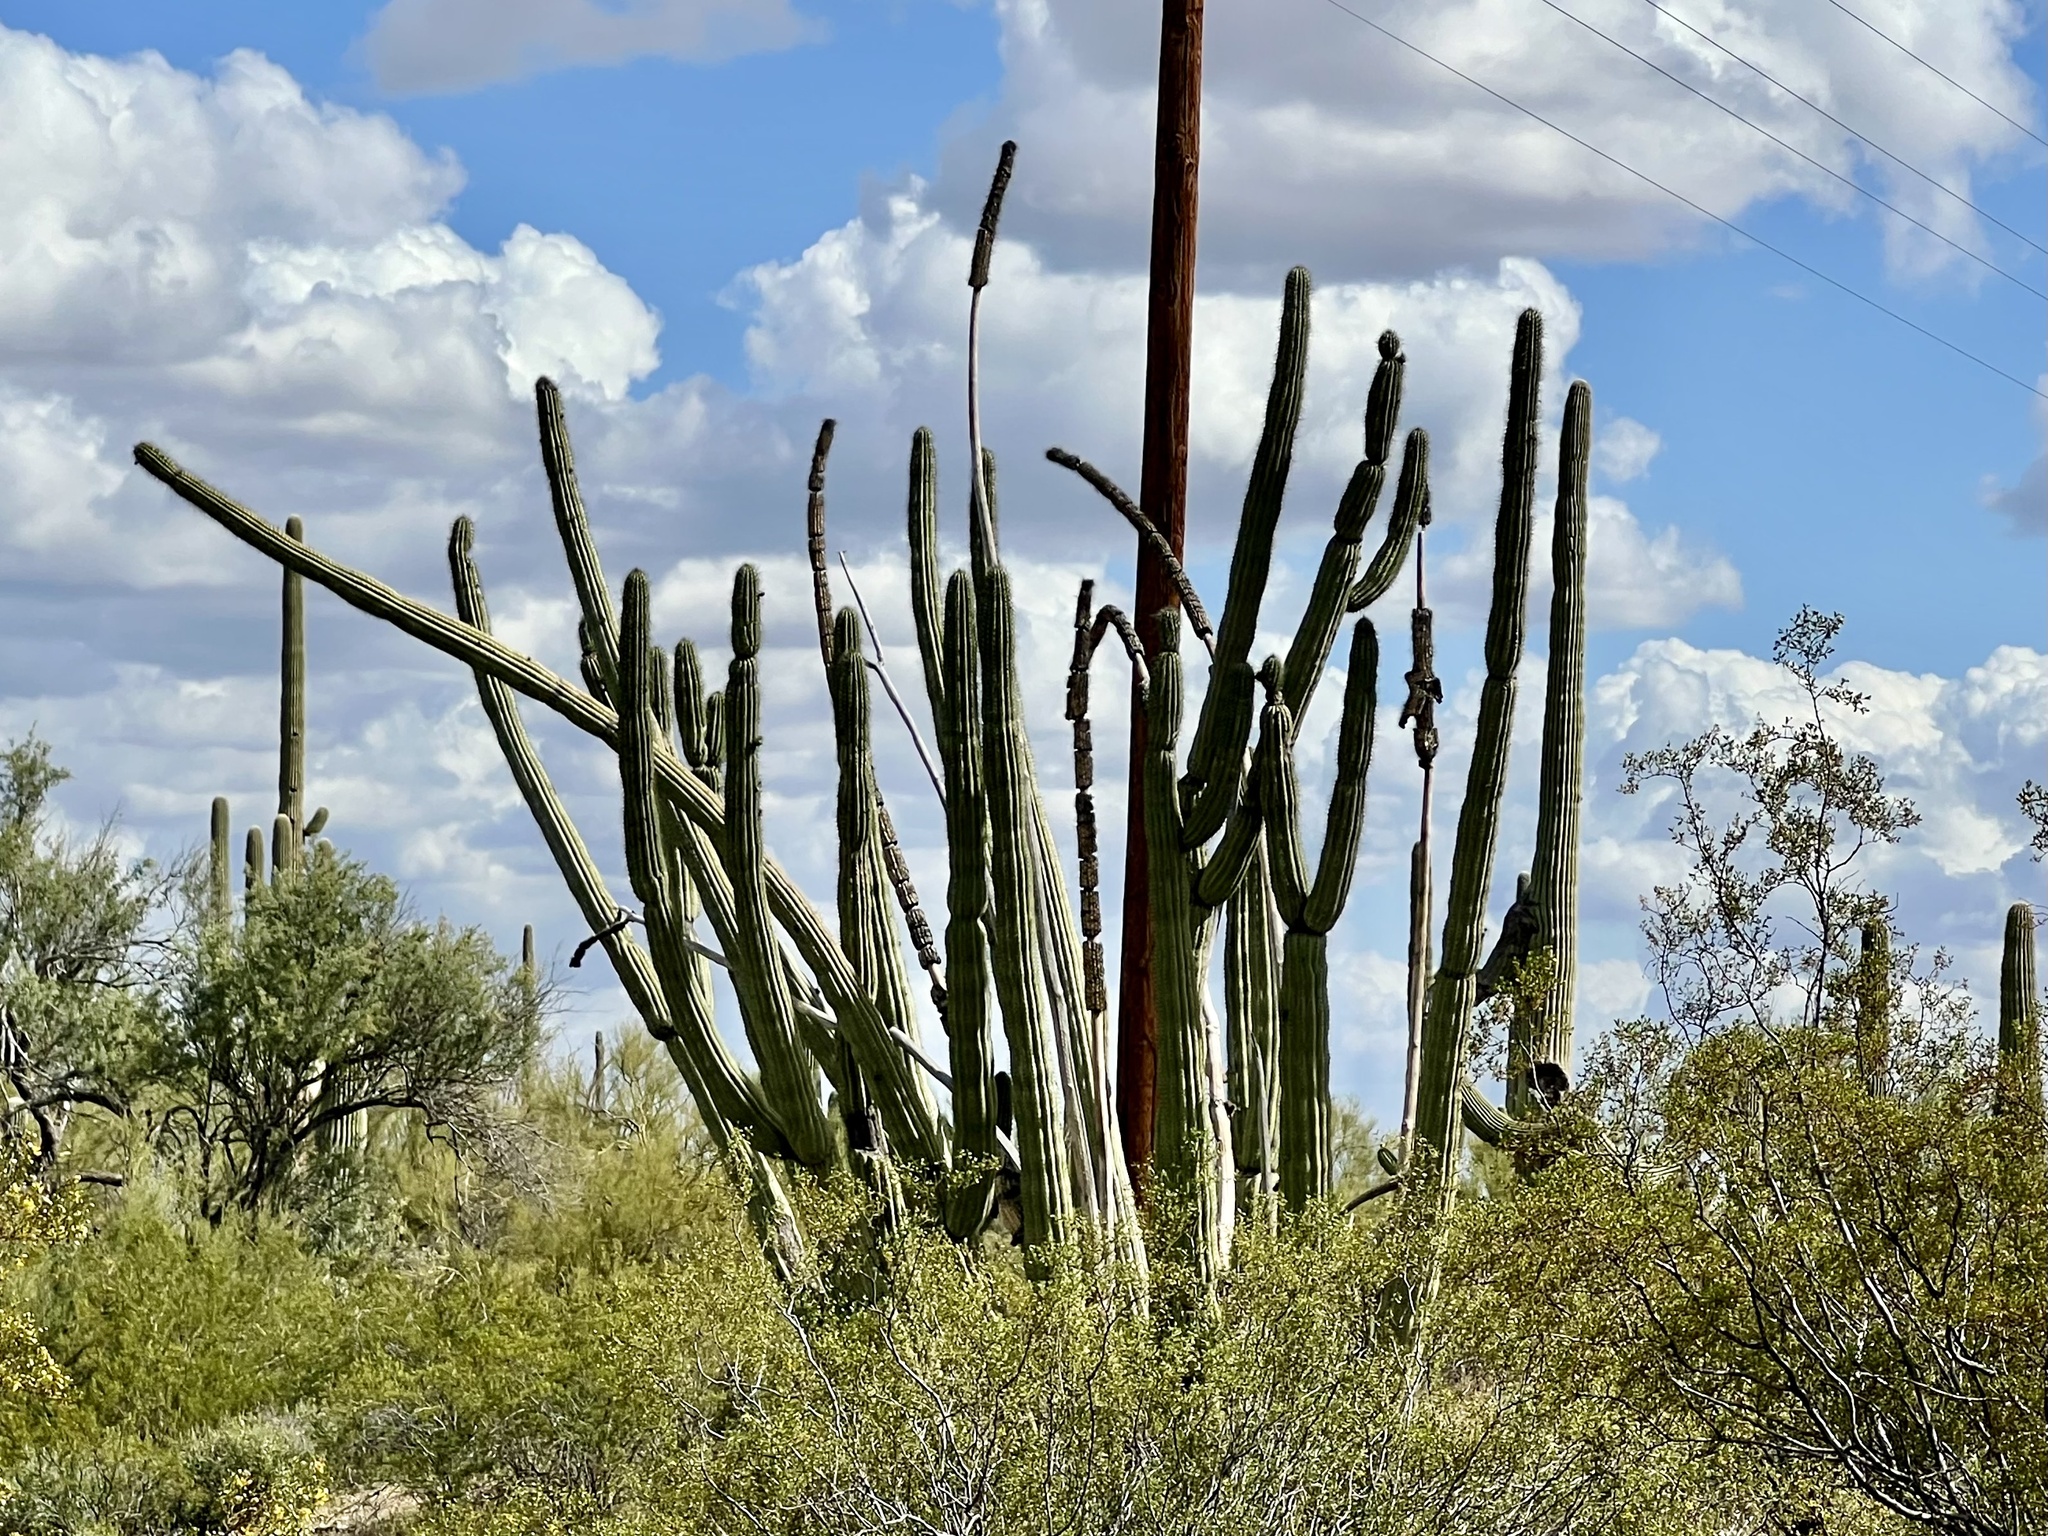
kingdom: Plantae
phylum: Tracheophyta
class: Magnoliopsida
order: Caryophyllales
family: Cactaceae
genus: Stenocereus
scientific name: Stenocereus thurberi
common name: Organ pipe cactus
